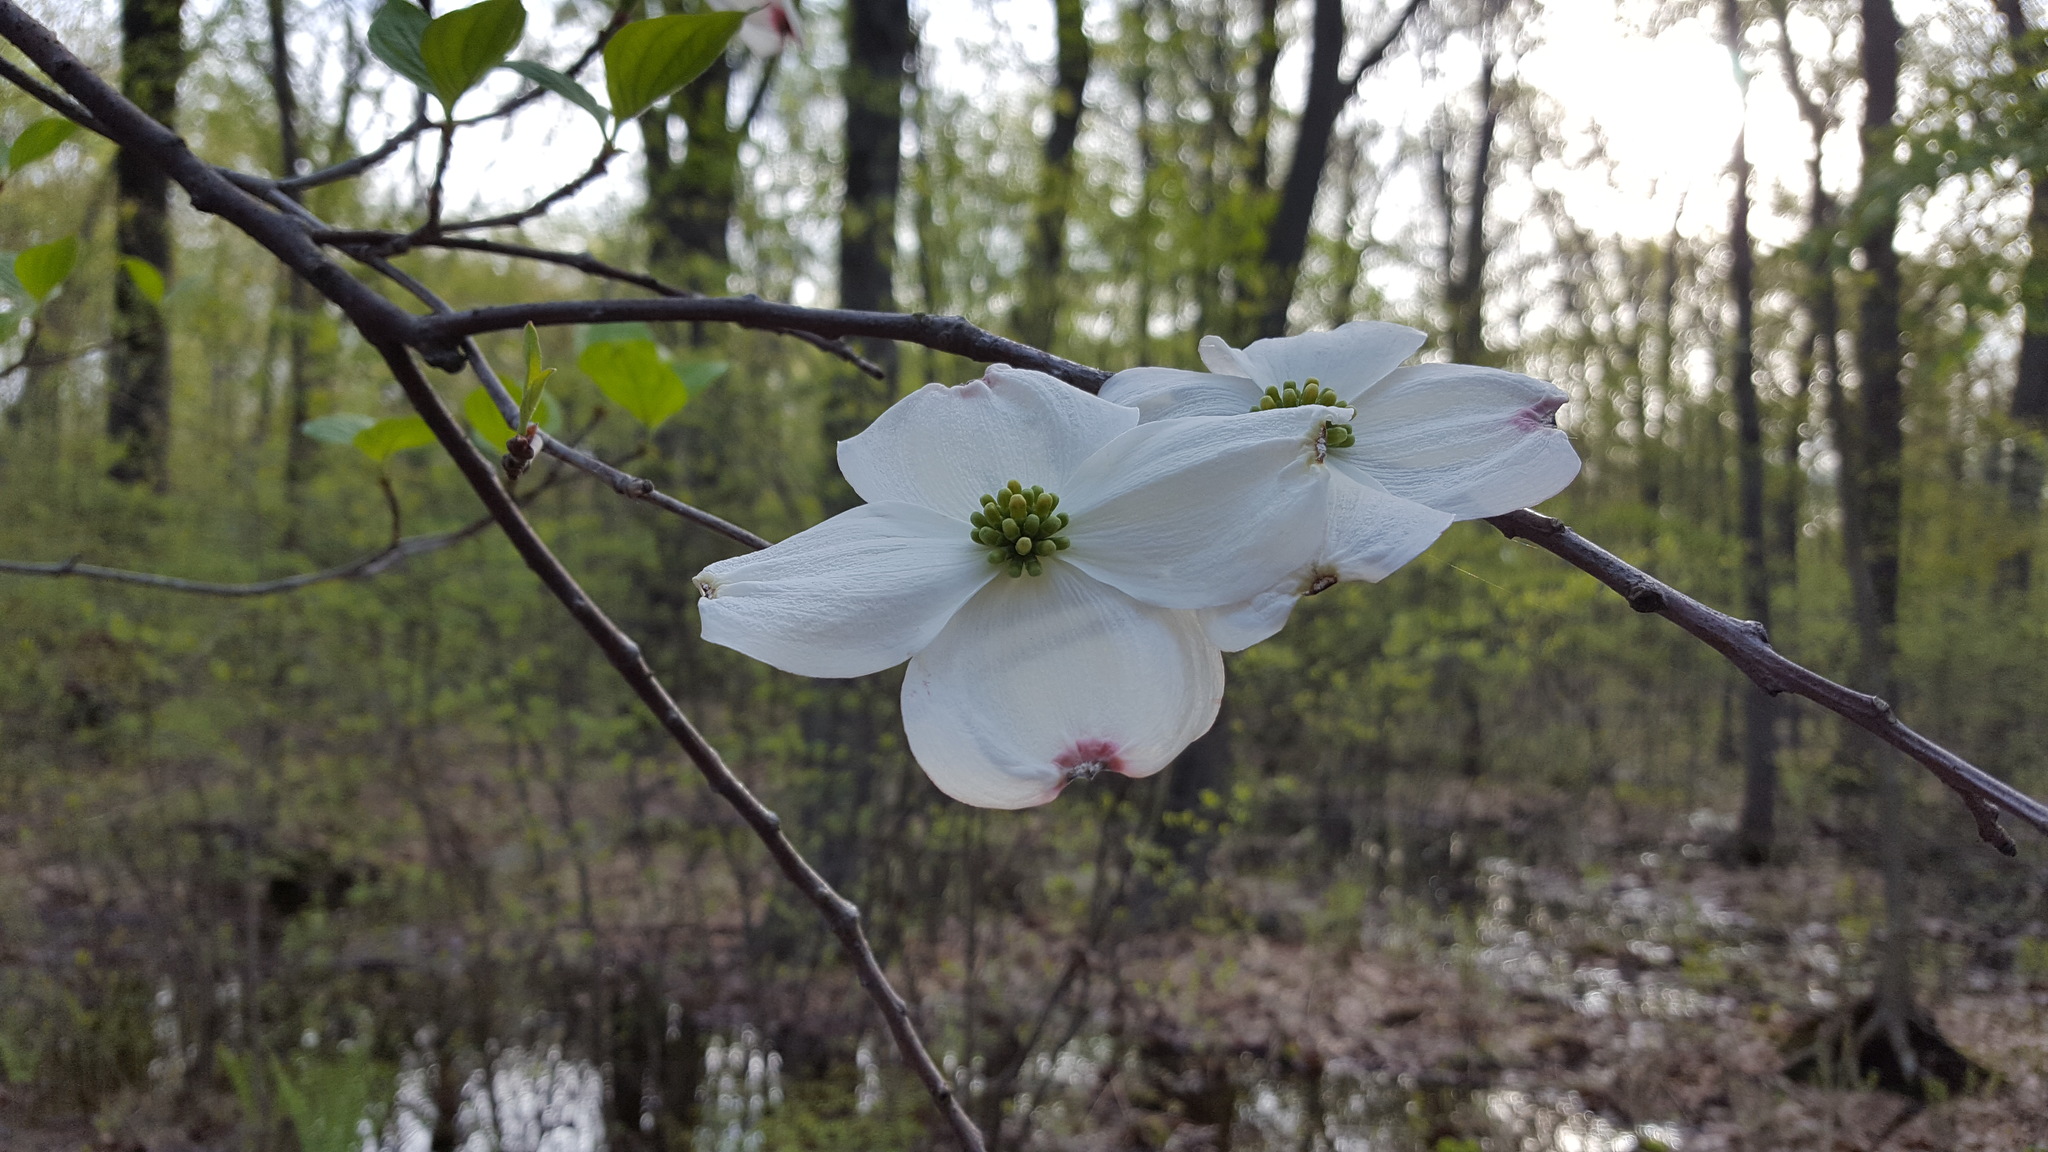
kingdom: Plantae
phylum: Tracheophyta
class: Magnoliopsida
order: Cornales
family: Cornaceae
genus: Cornus
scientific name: Cornus florida
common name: Flowering dogwood
